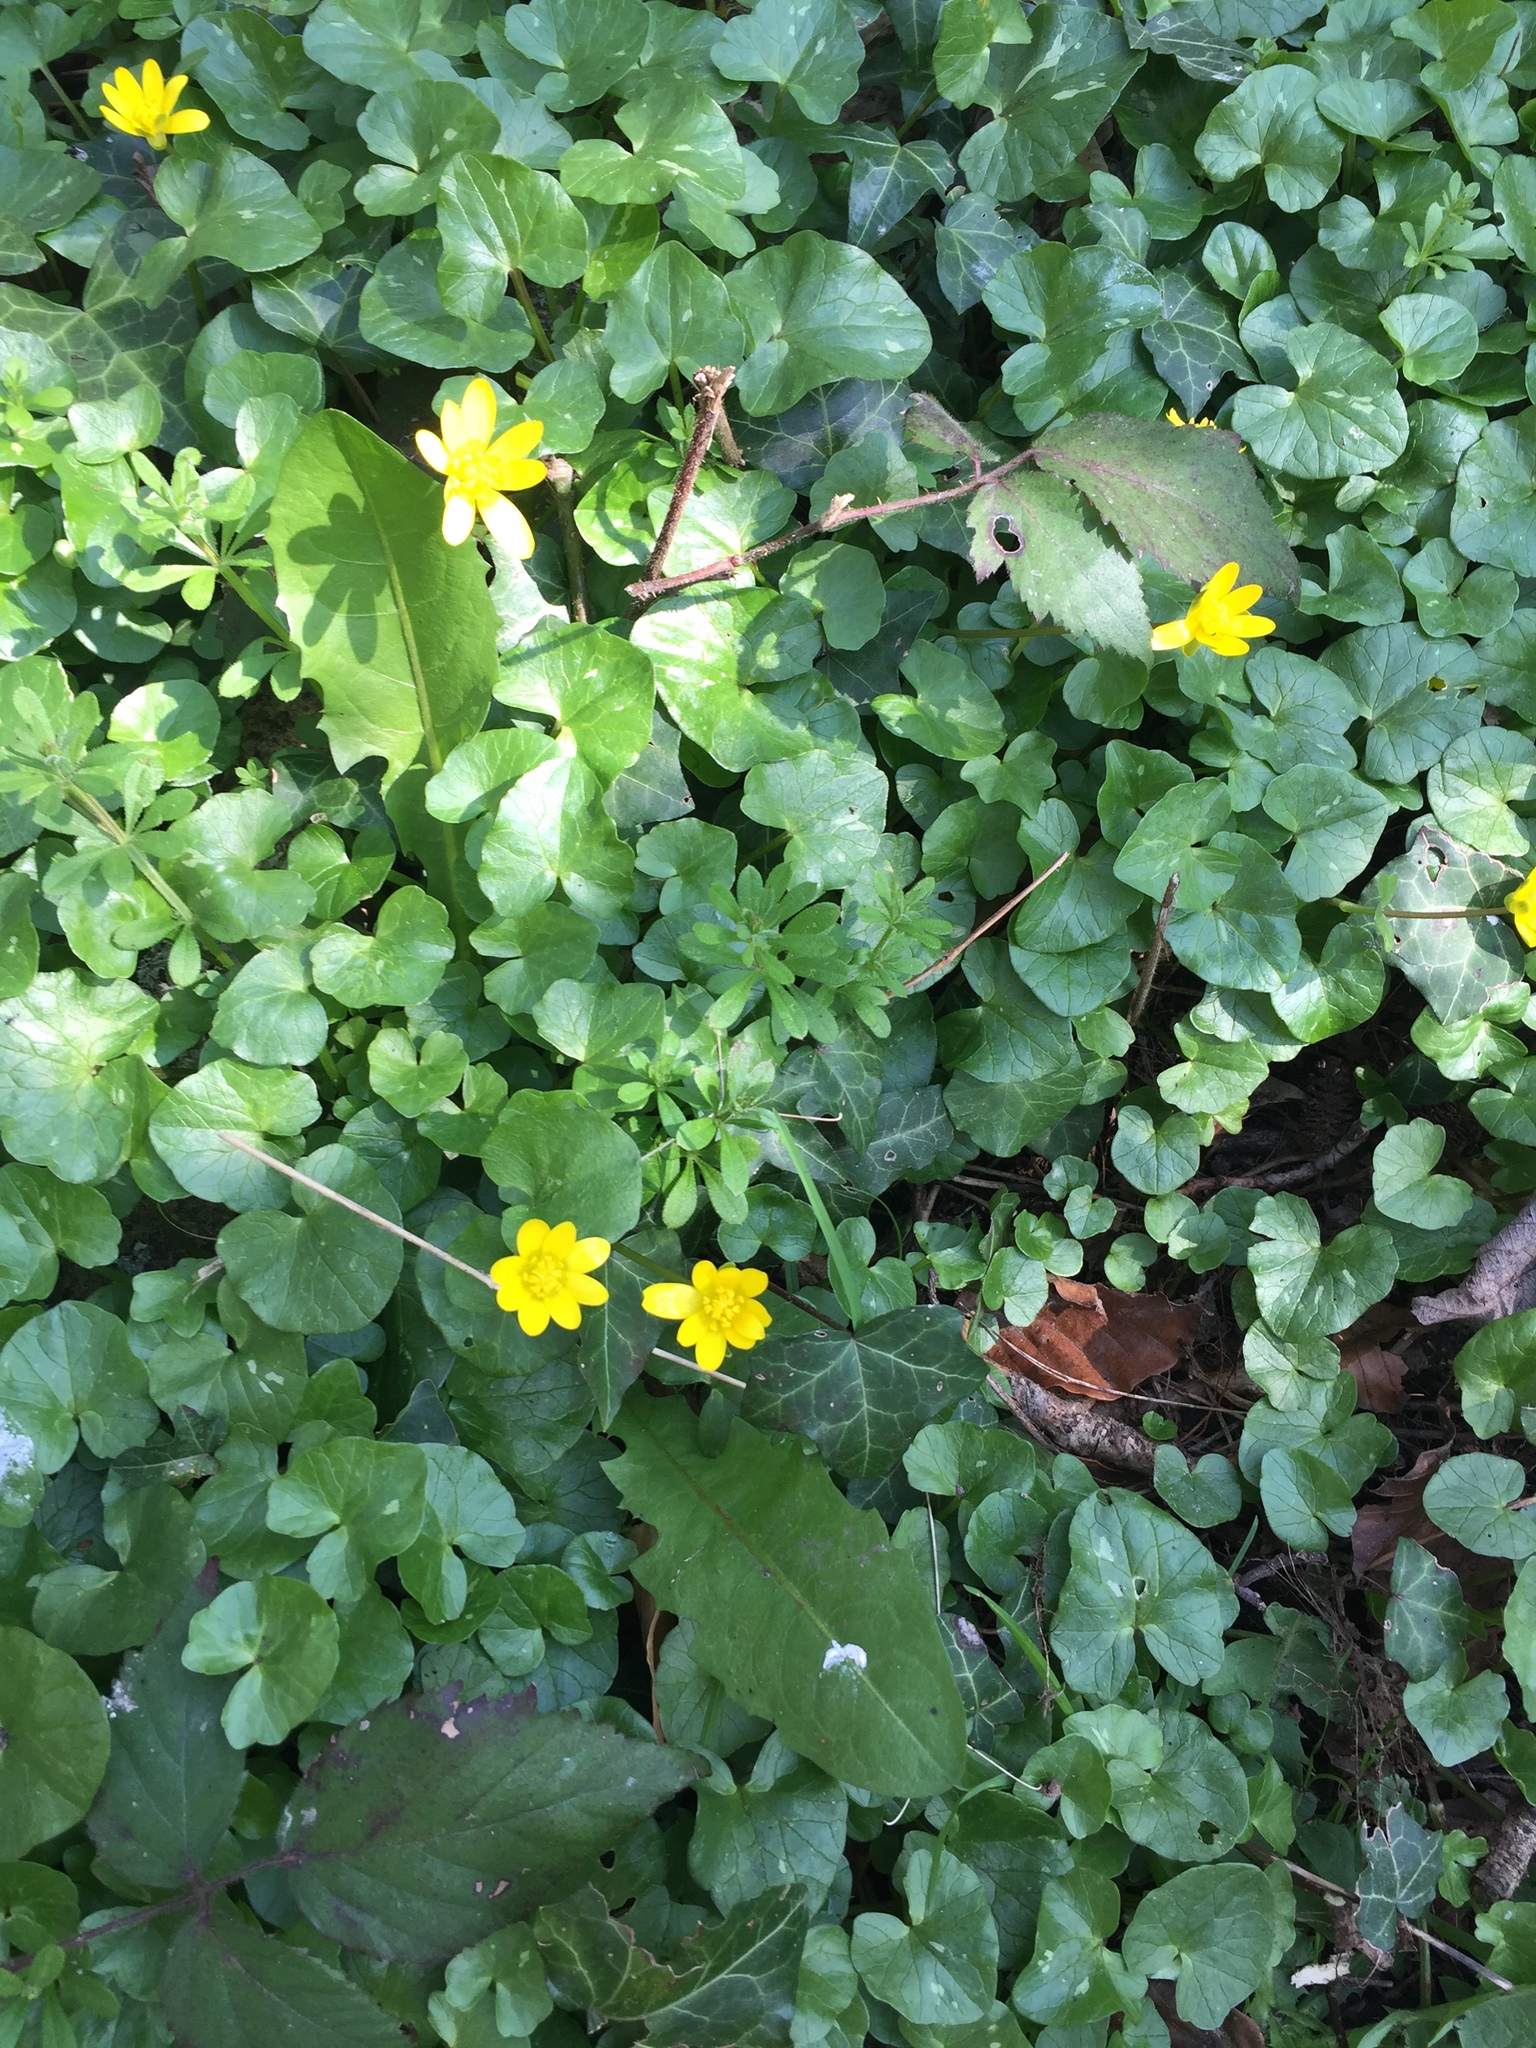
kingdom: Plantae
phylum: Tracheophyta
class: Magnoliopsida
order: Ranunculales
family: Ranunculaceae
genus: Ficaria
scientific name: Ficaria verna
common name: Lesser celandine
